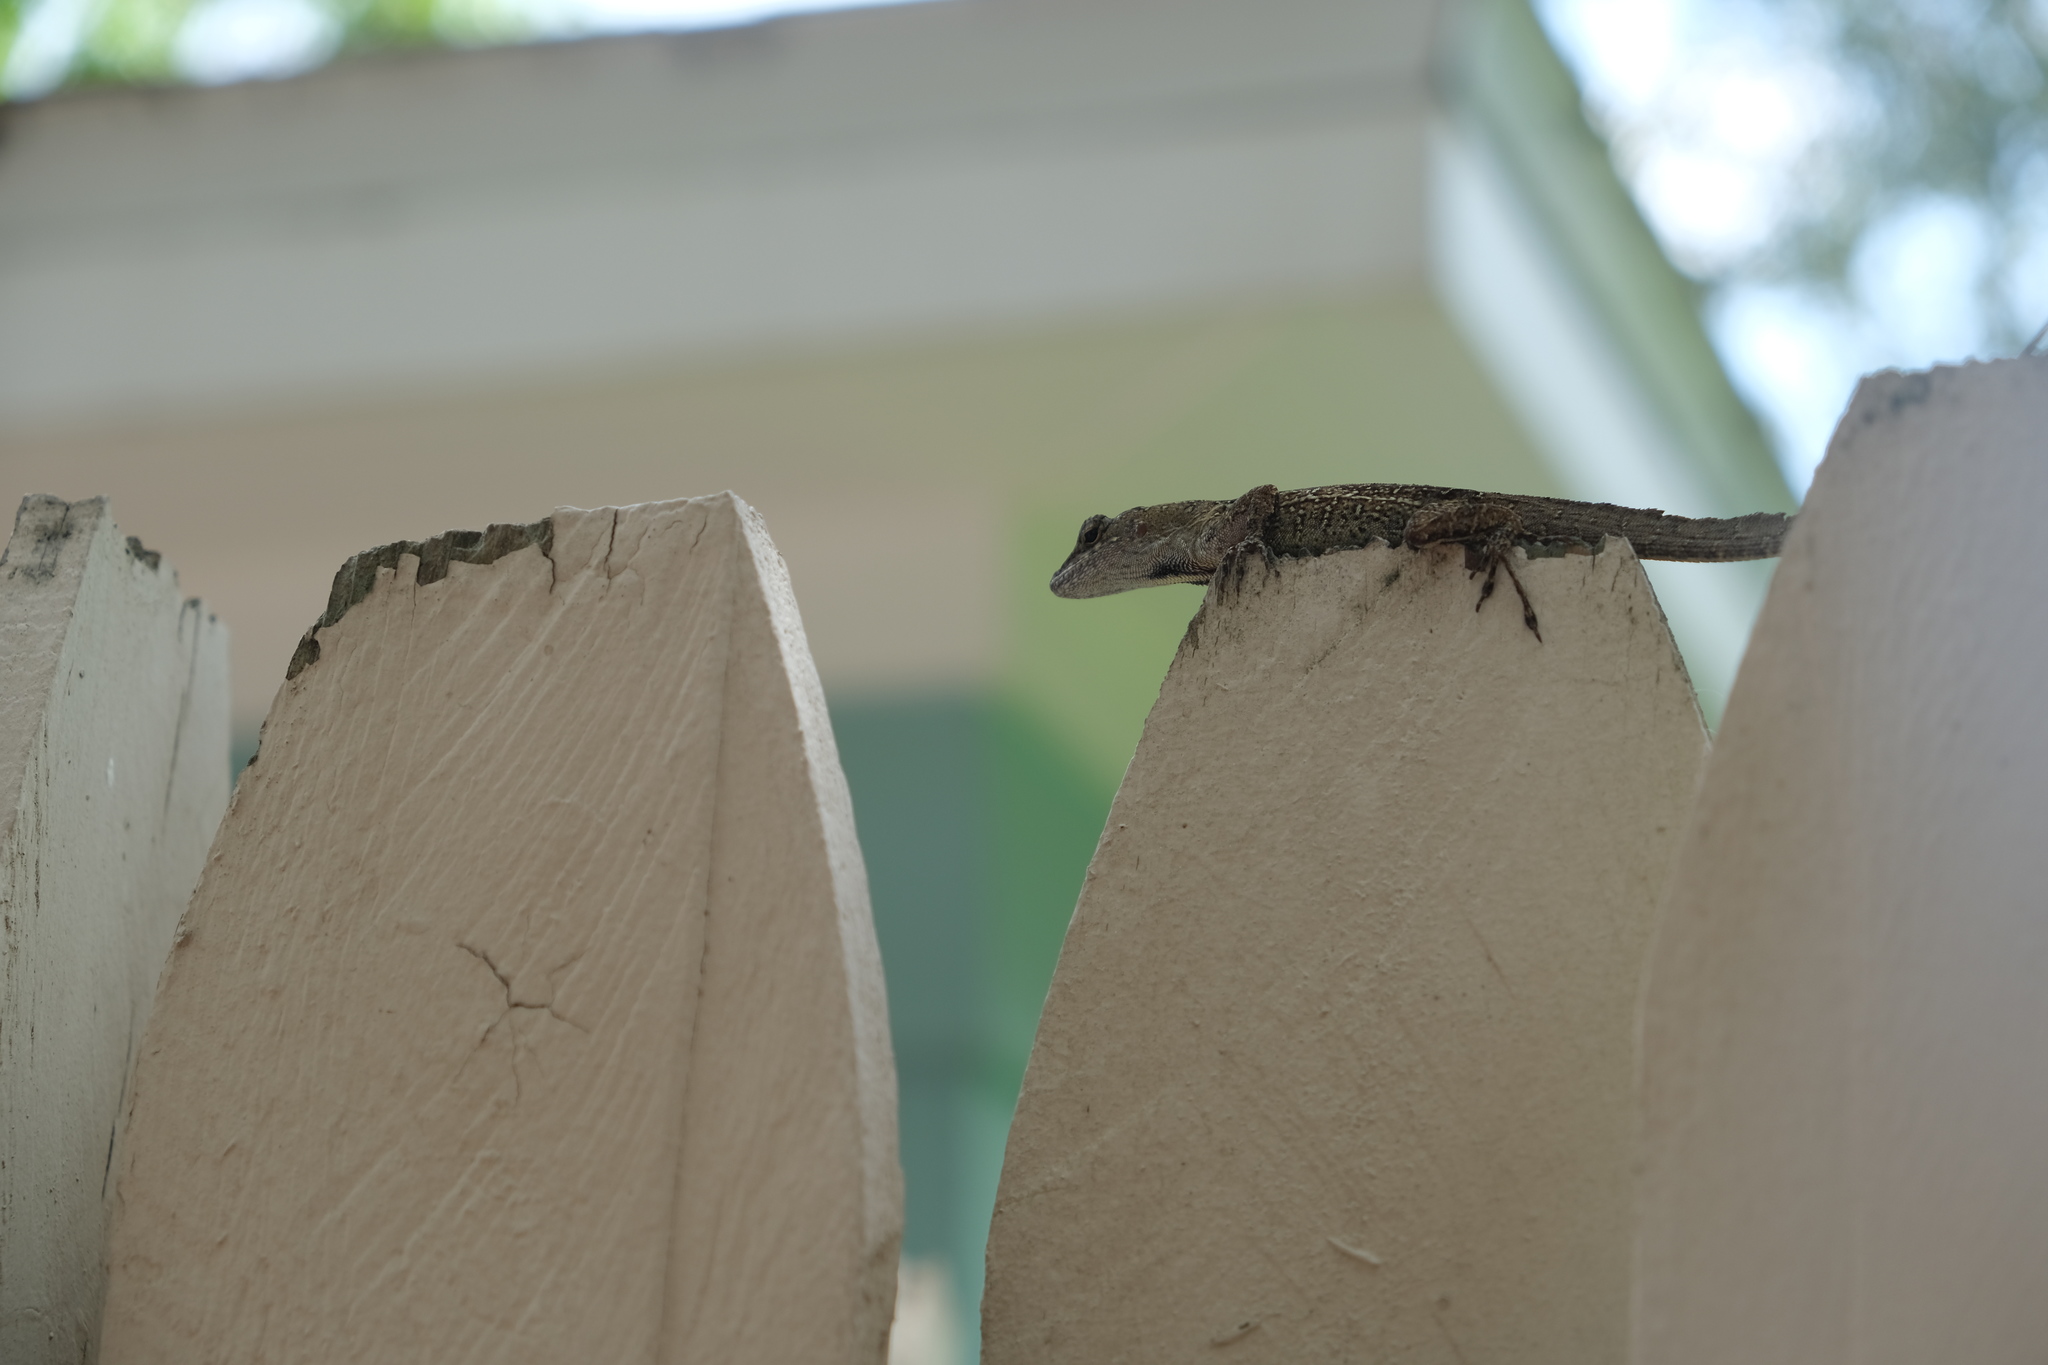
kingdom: Animalia
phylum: Chordata
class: Squamata
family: Dactyloidae
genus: Anolis
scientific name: Anolis sagrei
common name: Brown anole
